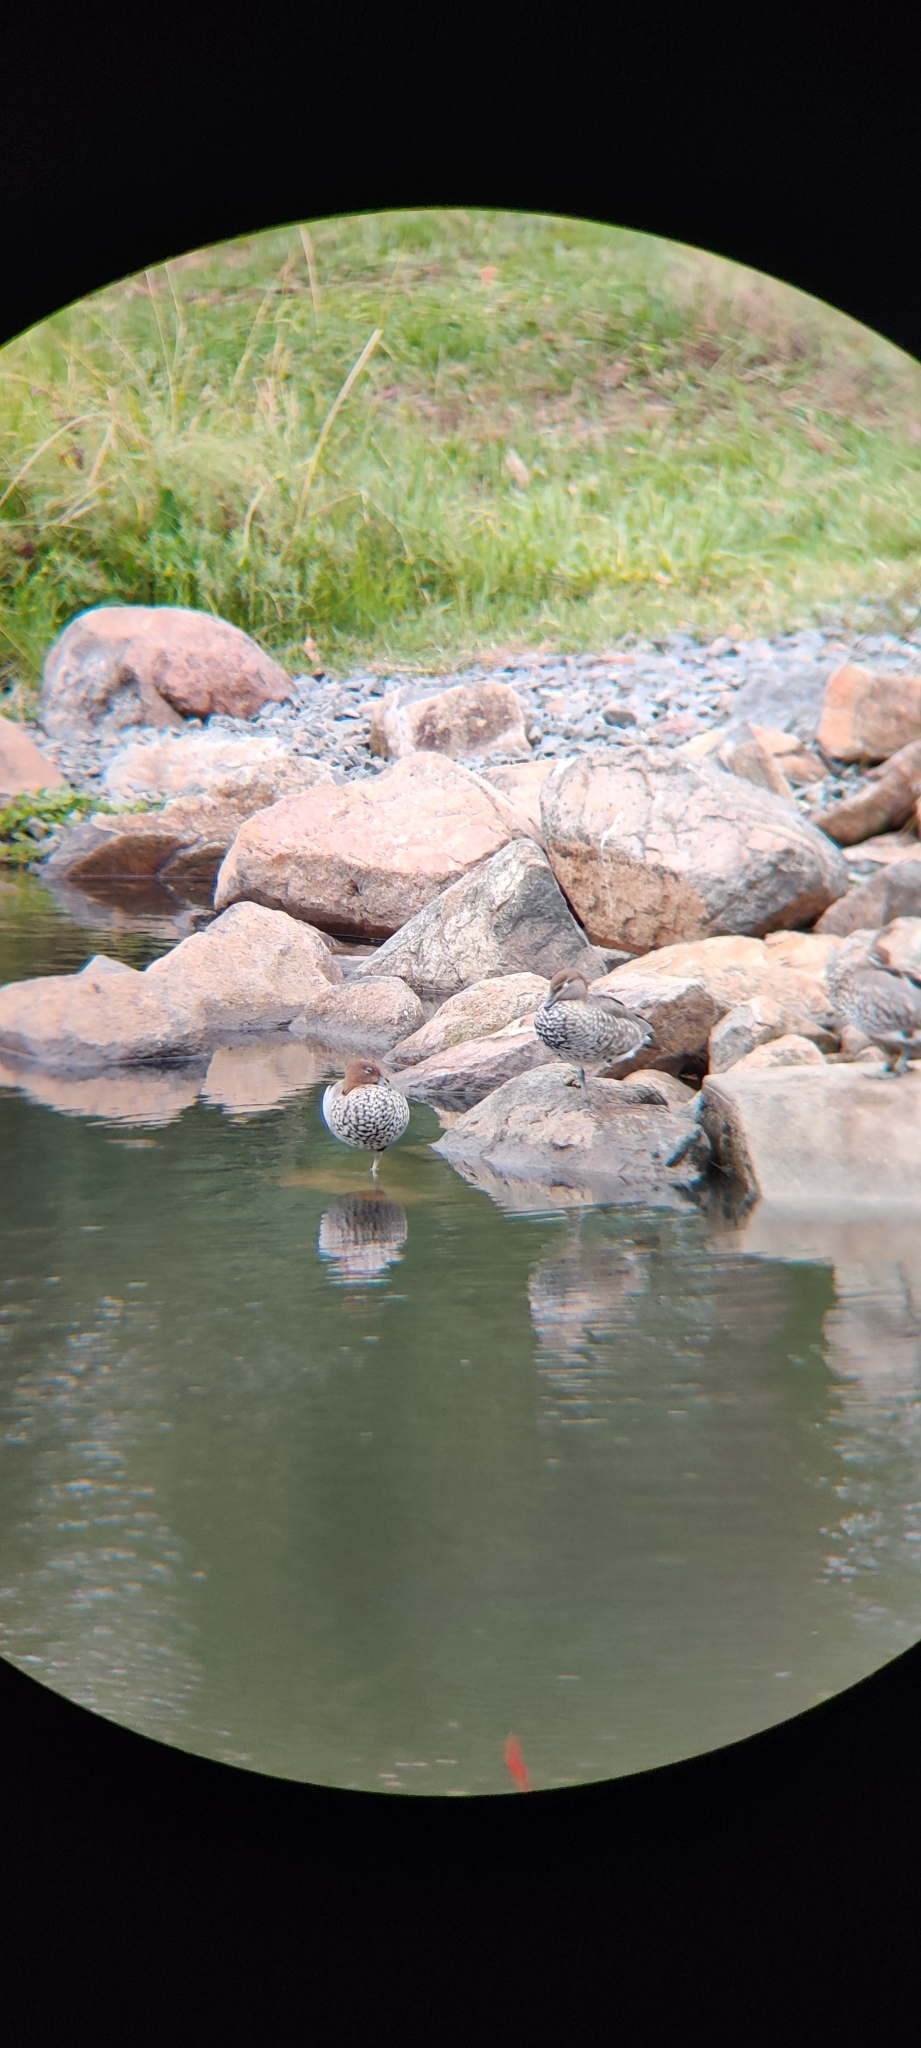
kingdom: Animalia
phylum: Chordata
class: Aves
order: Anseriformes
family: Anatidae
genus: Chenonetta
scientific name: Chenonetta jubata
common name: Maned duck
